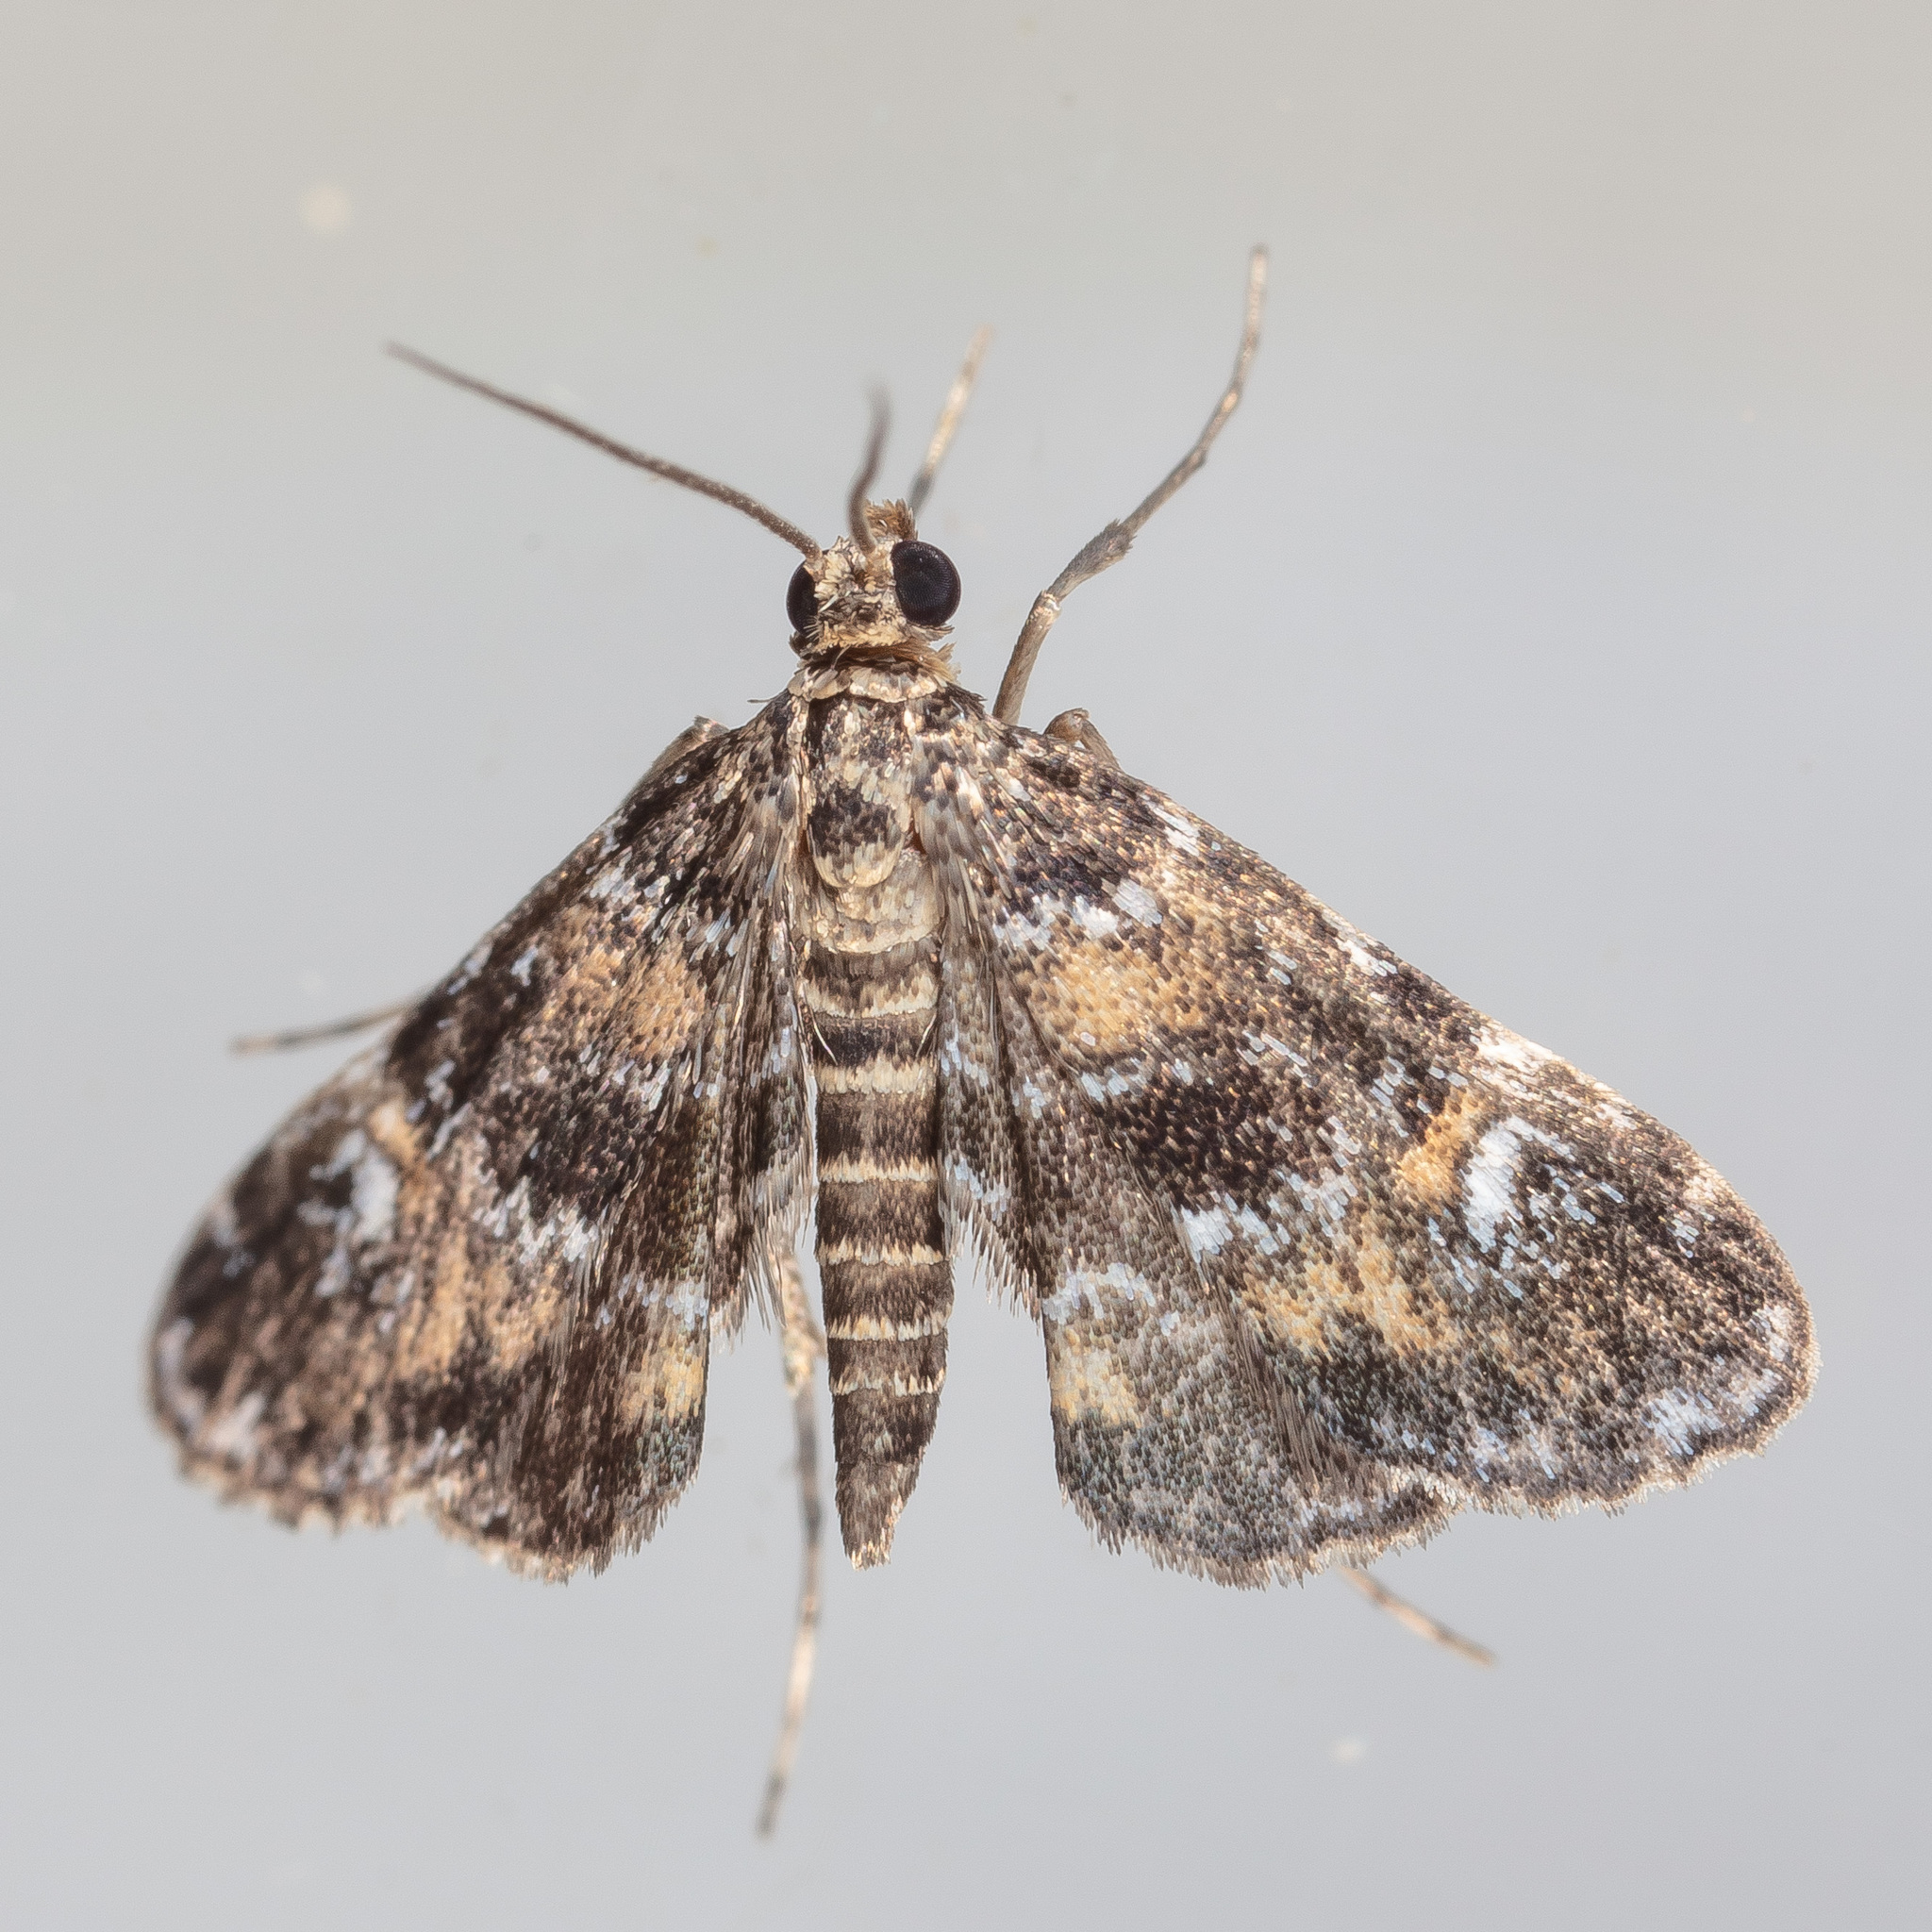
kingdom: Animalia
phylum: Arthropoda
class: Insecta
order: Lepidoptera
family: Crambidae
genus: Elophila
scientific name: Elophila obliteralis
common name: Waterlily leafcutter moth
